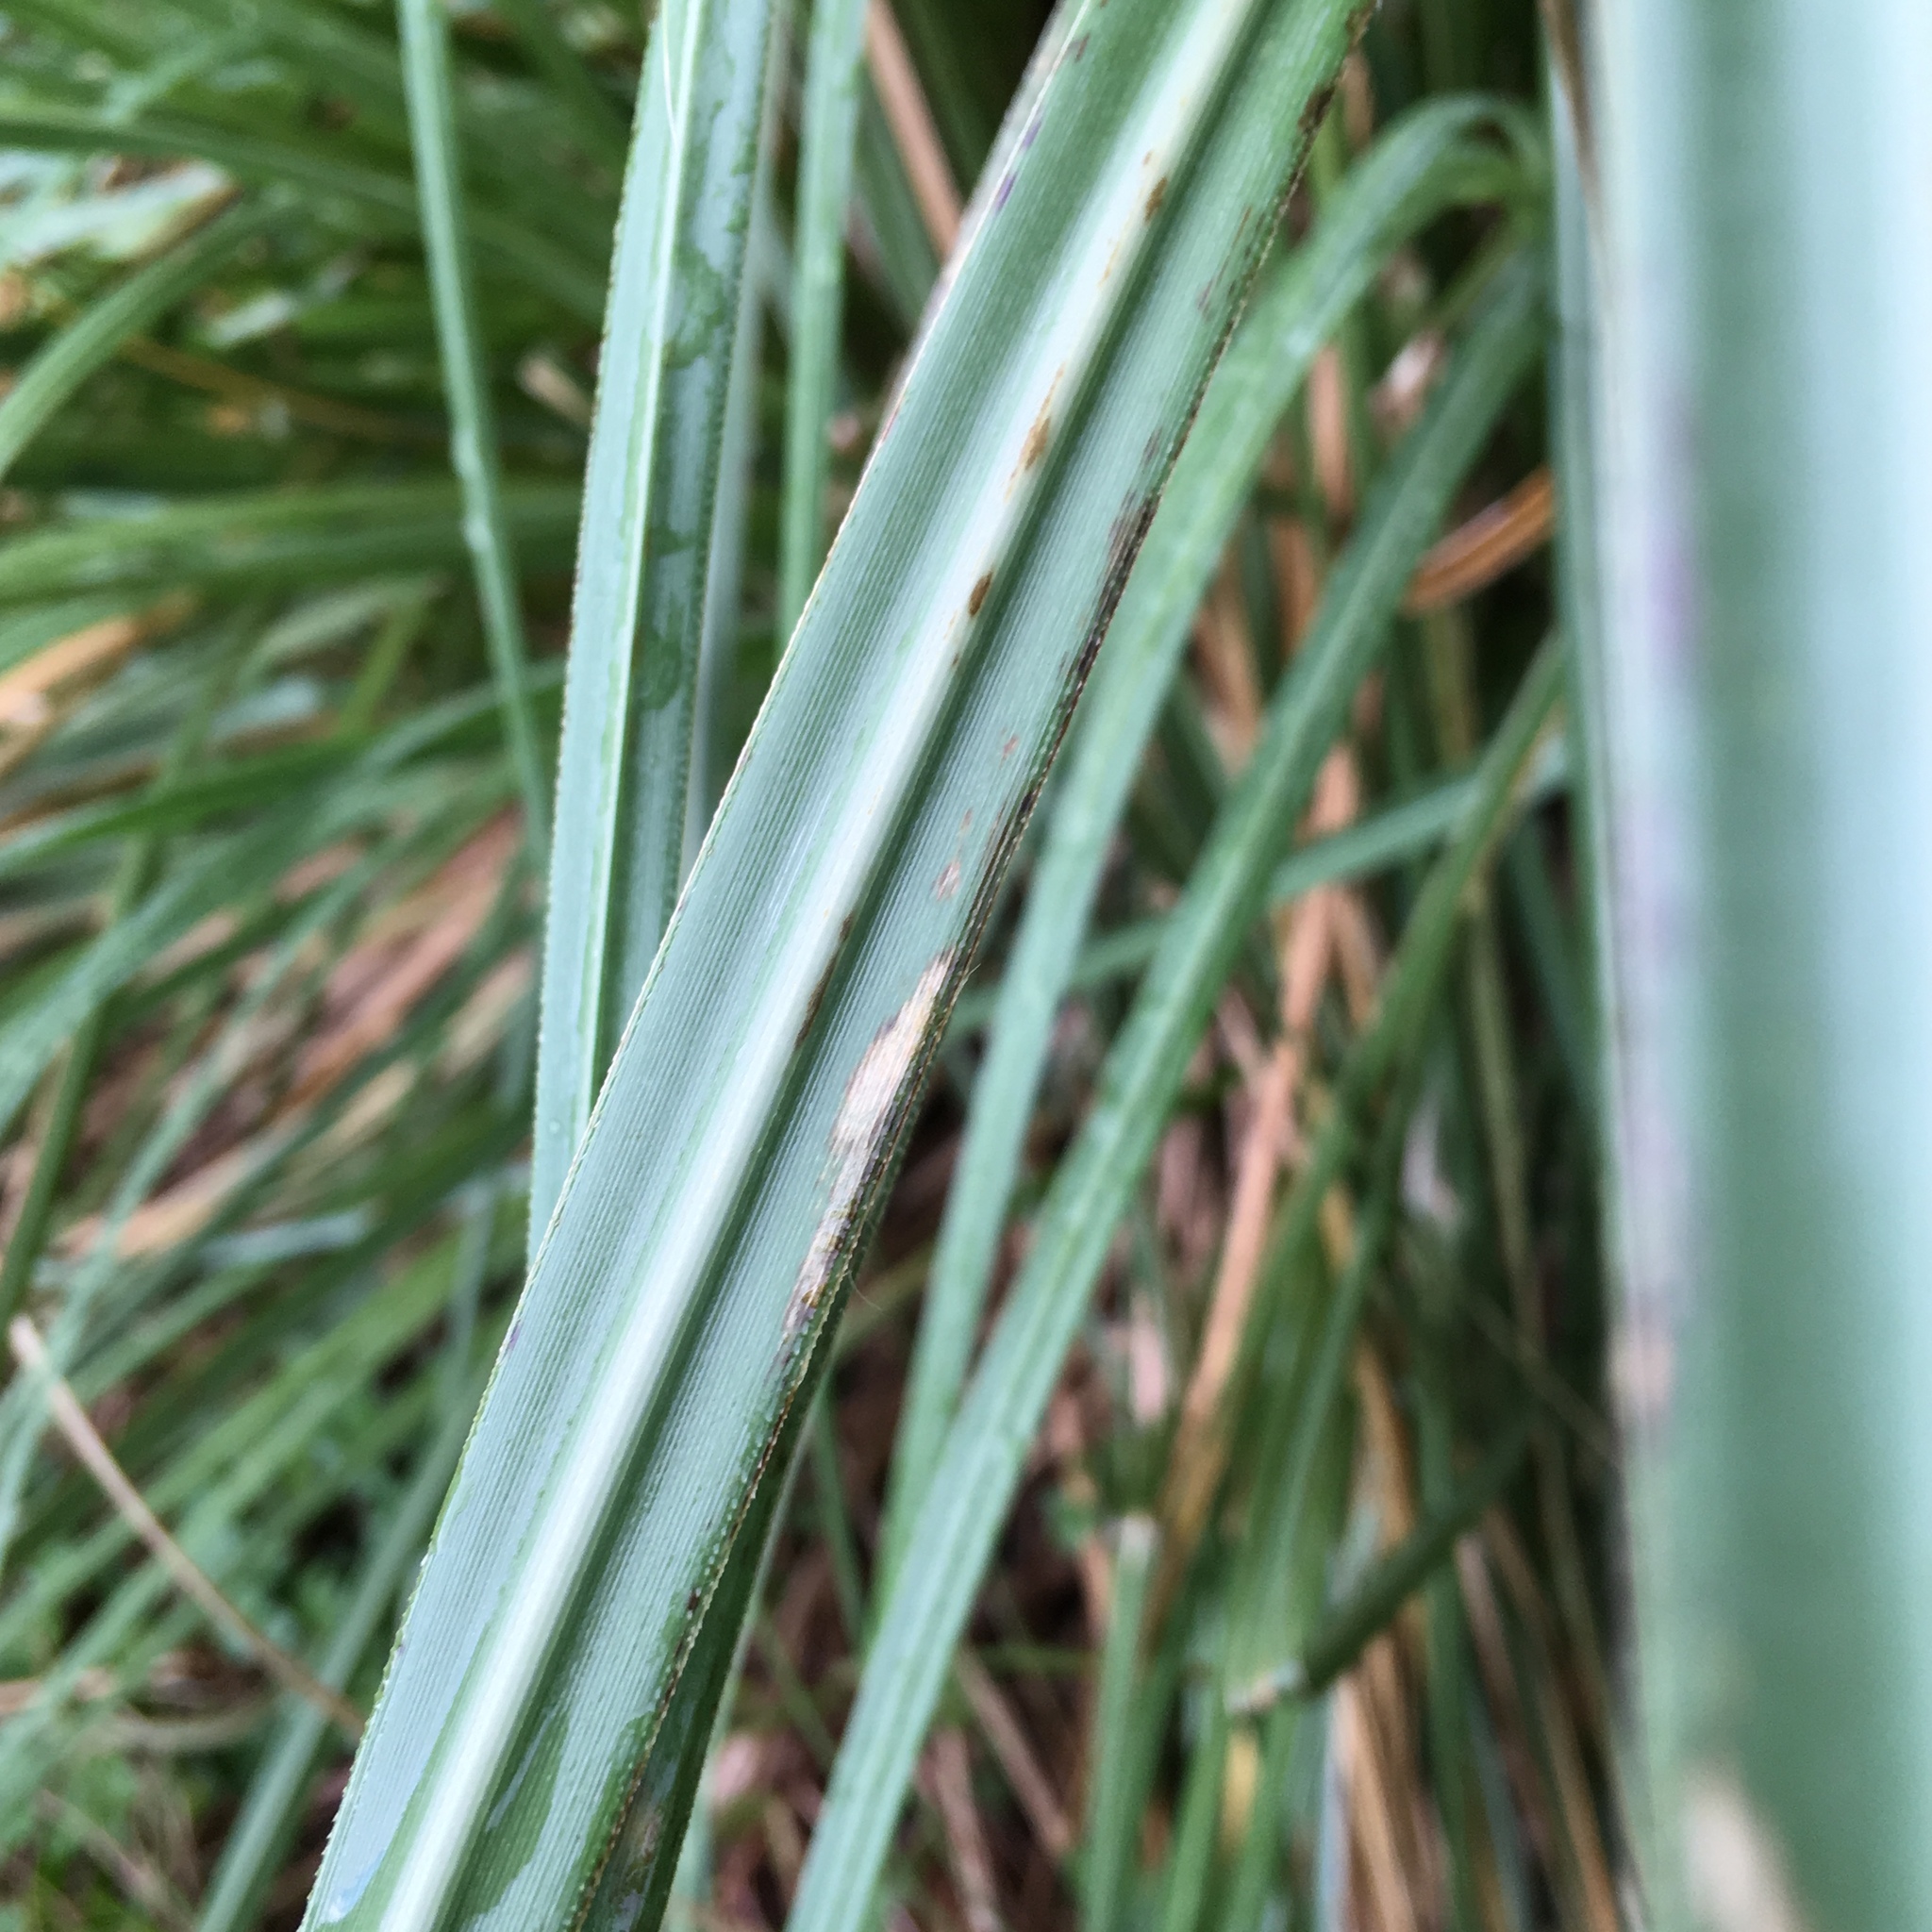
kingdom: Plantae
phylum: Tracheophyta
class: Liliopsida
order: Poales
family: Poaceae
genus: Cortaderia
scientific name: Cortaderia selloana
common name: Uruguayan pampas grass
